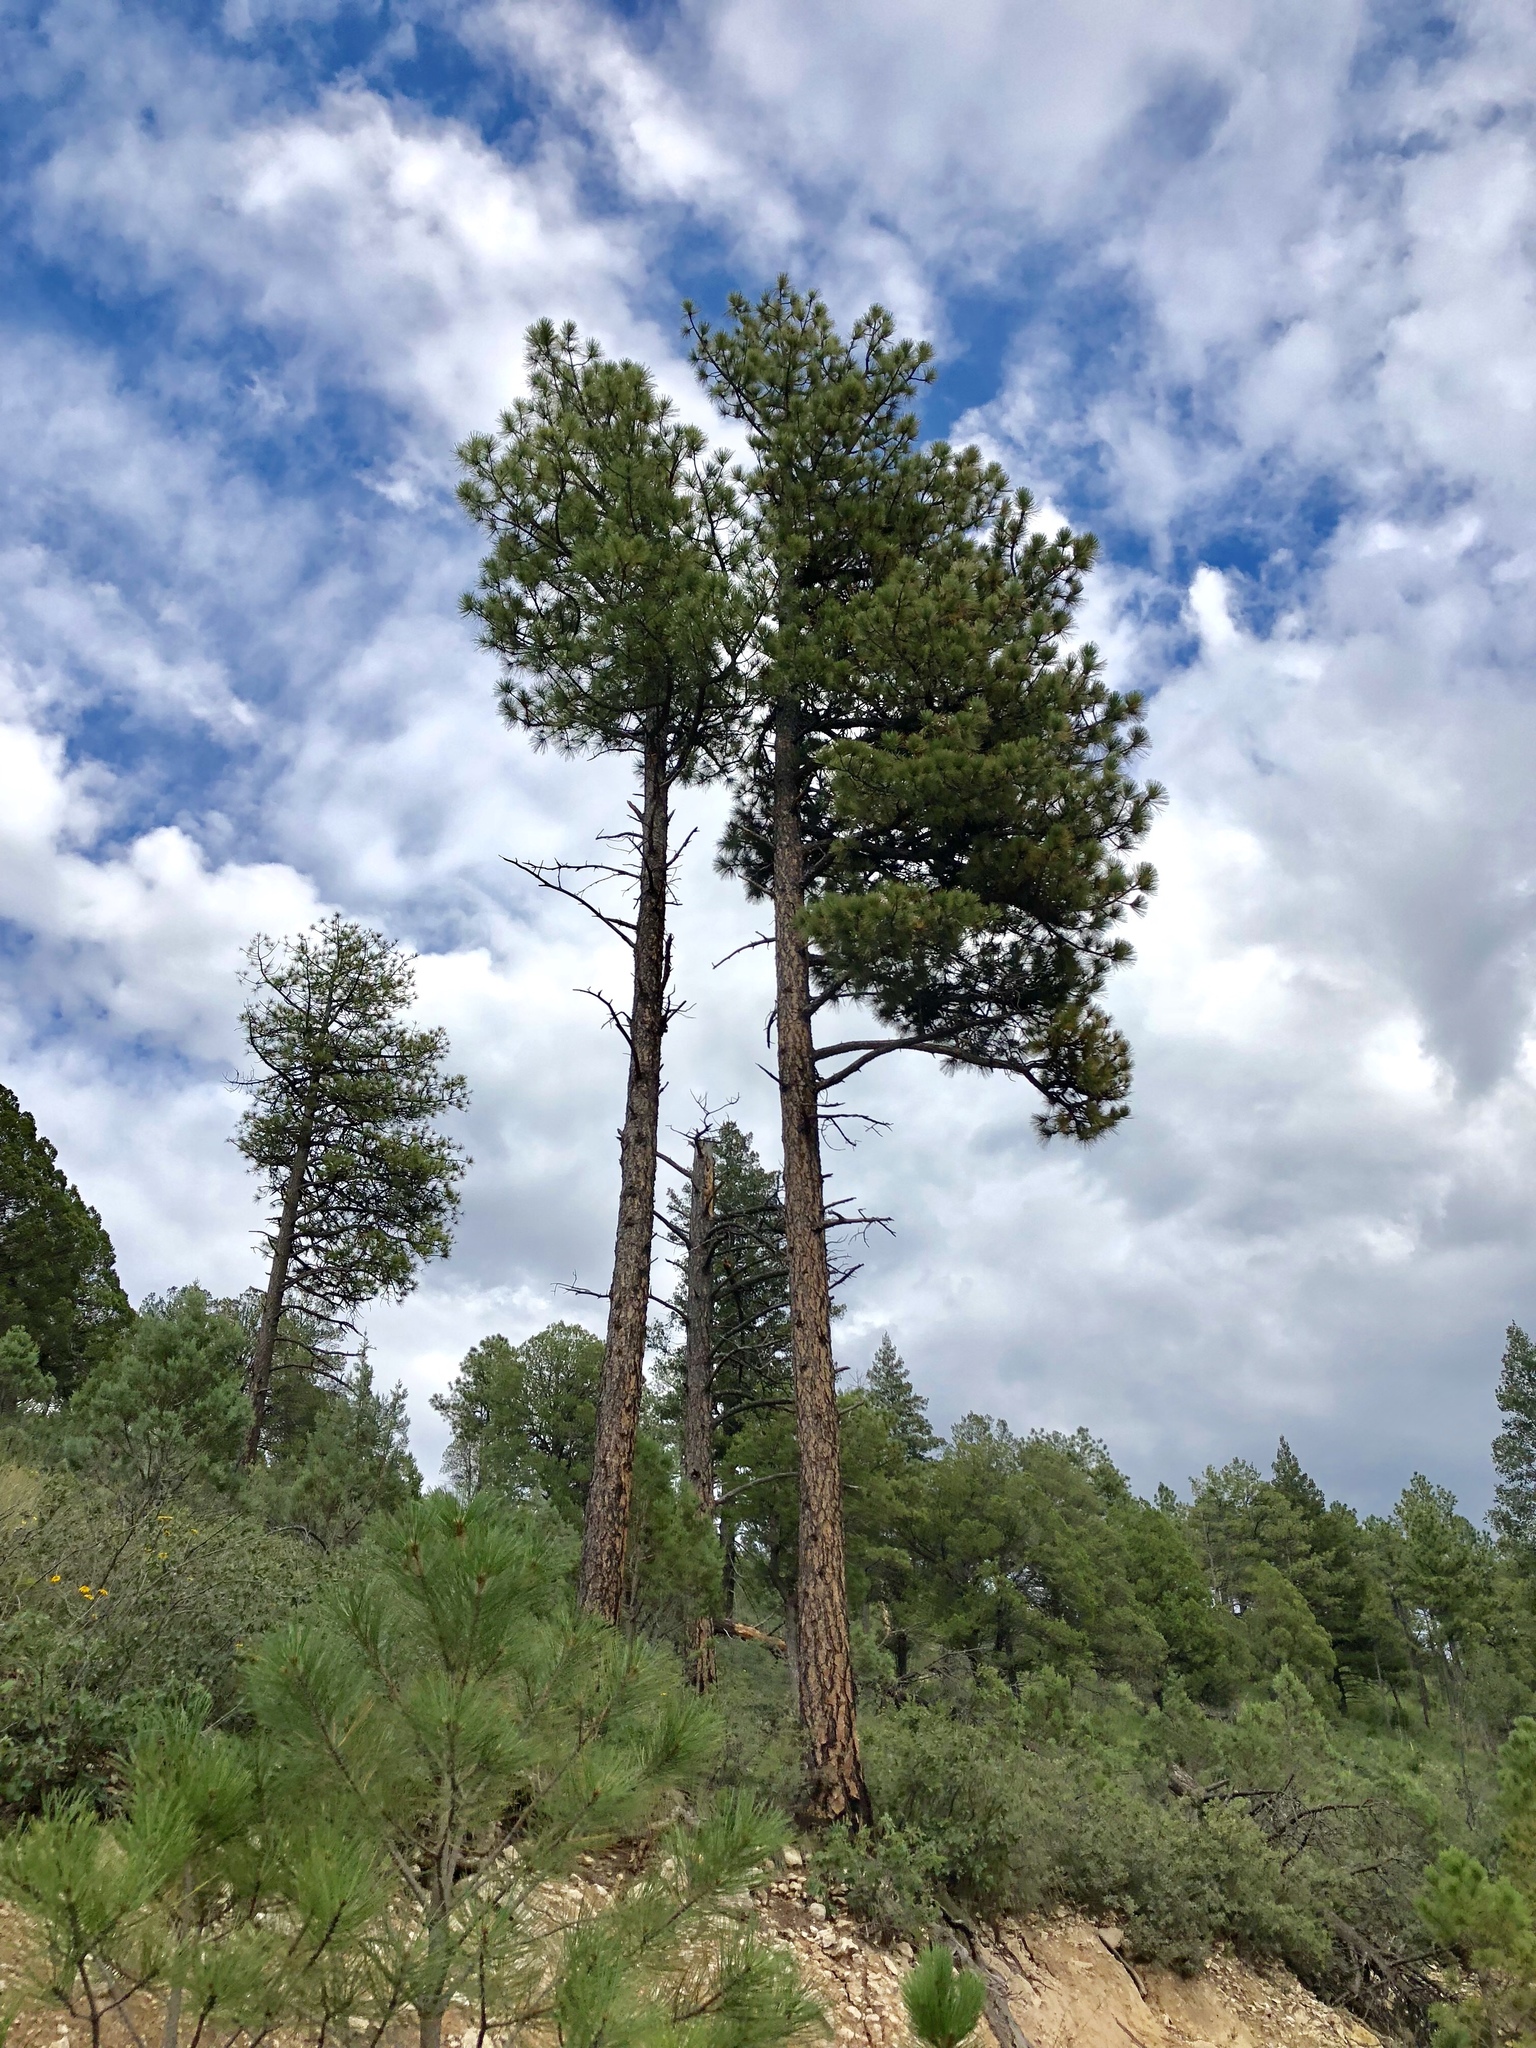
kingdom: Plantae
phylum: Tracheophyta
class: Pinopsida
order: Pinales
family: Pinaceae
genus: Pinus
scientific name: Pinus ponderosa
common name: Western yellow-pine
